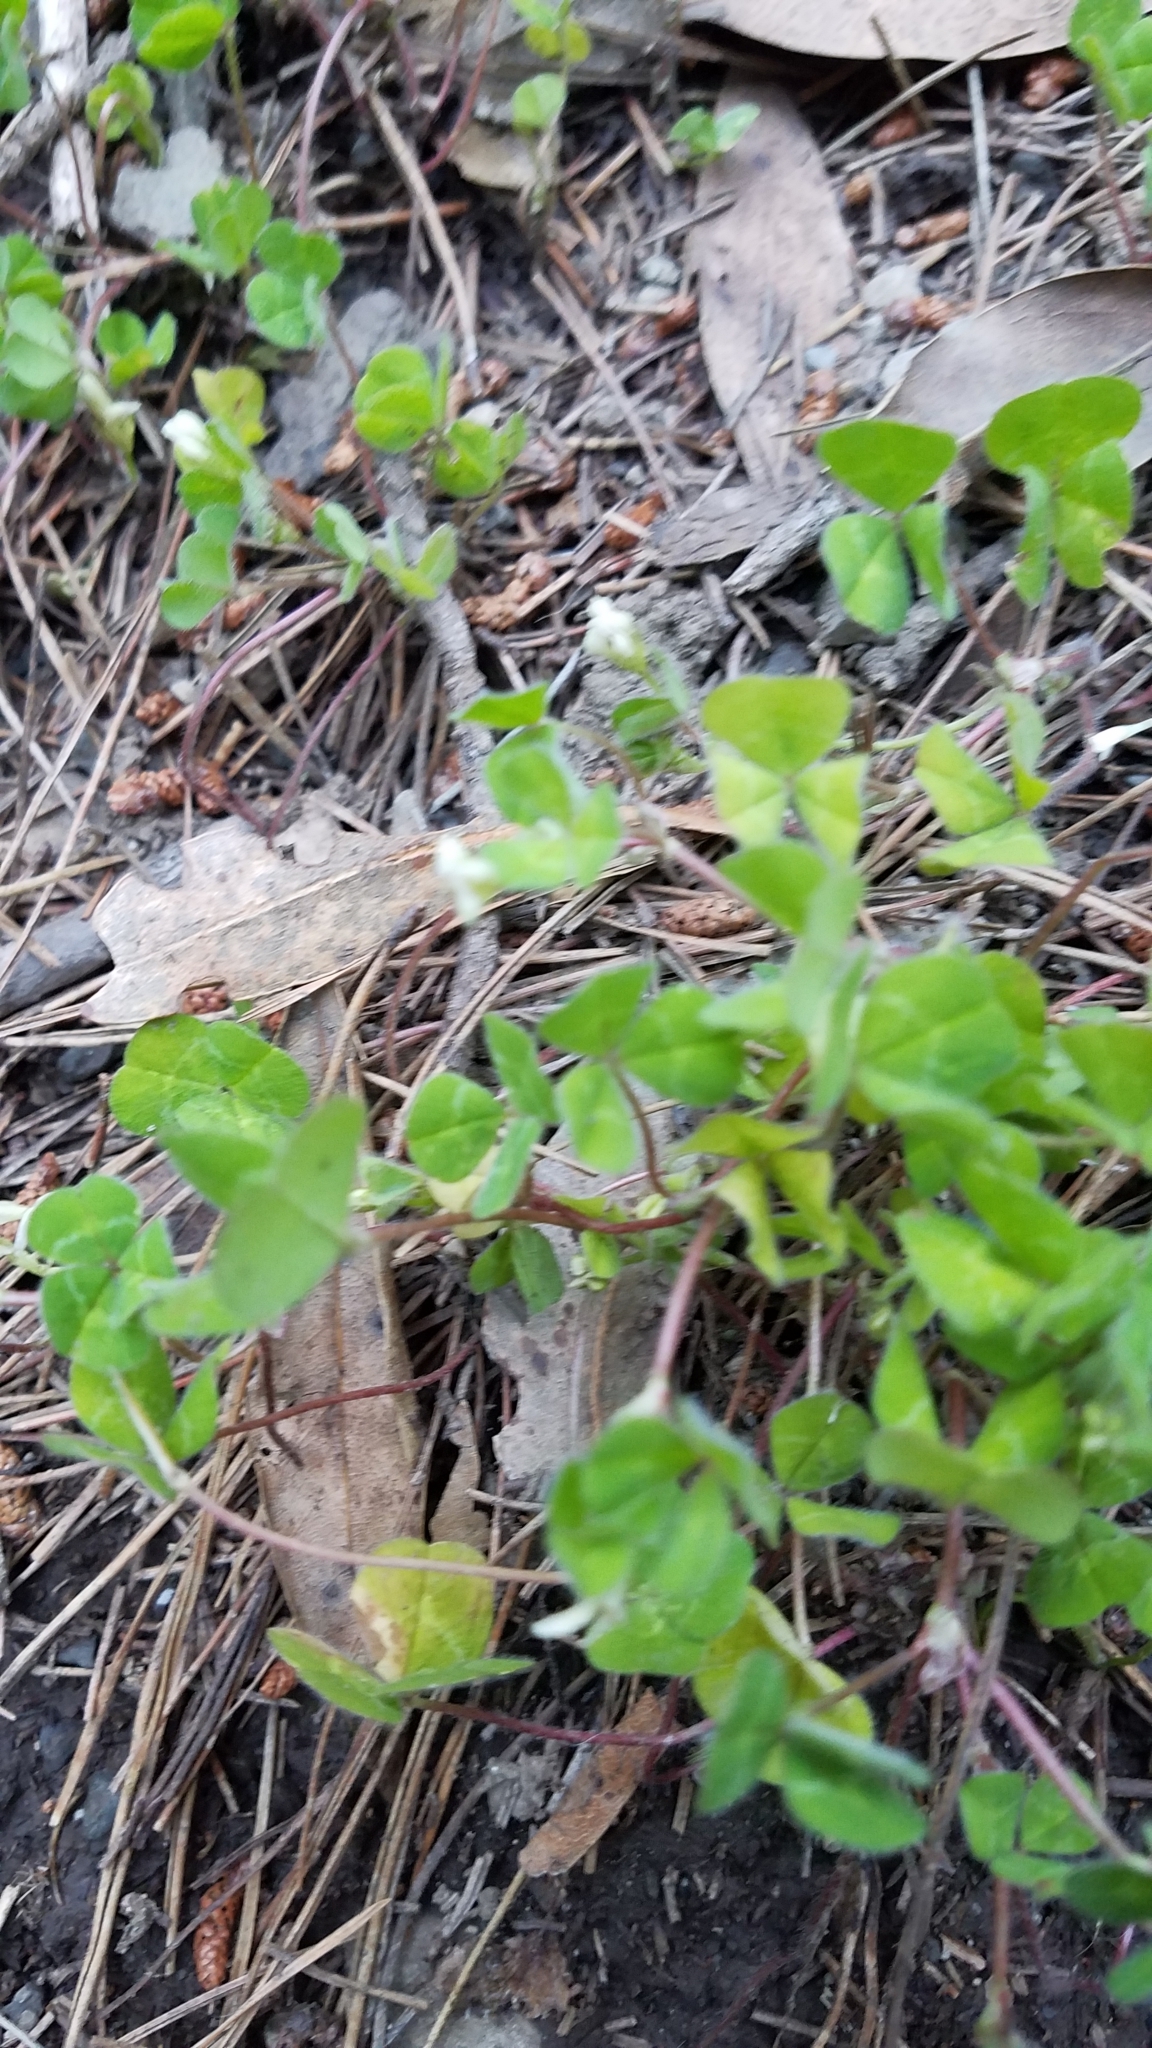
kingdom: Plantae
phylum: Tracheophyta
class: Magnoliopsida
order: Fabales
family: Fabaceae
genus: Trifolium
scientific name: Trifolium subterraneum
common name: Subterranean clover
